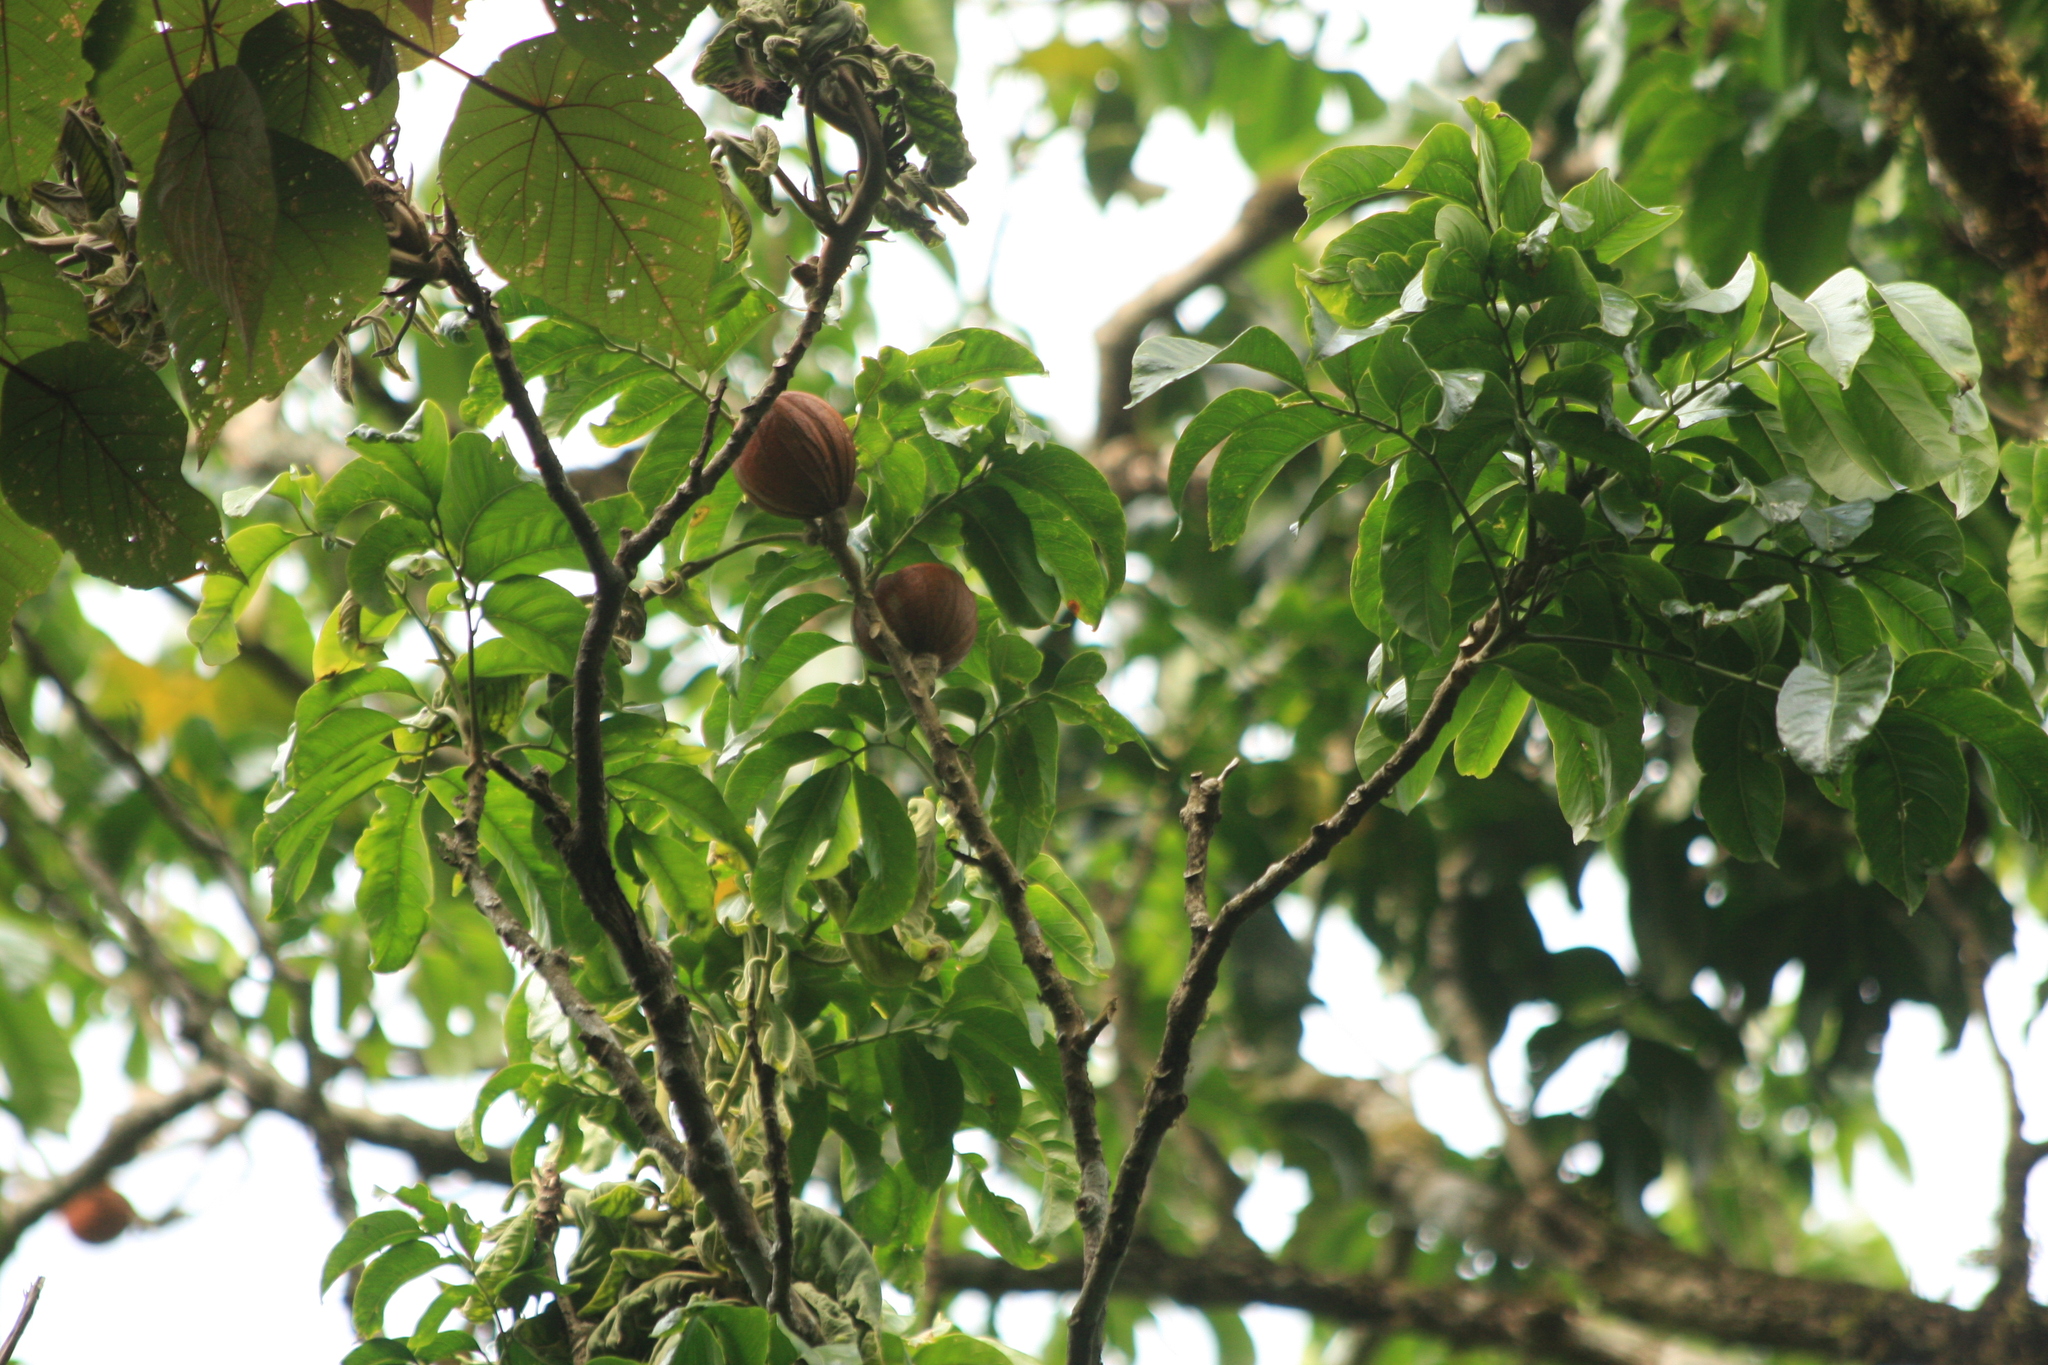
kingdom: Plantae
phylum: Tracheophyta
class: Magnoliopsida
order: Sapindales
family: Meliaceae
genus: Dysoxylum
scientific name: Dysoxylum gotadhora
